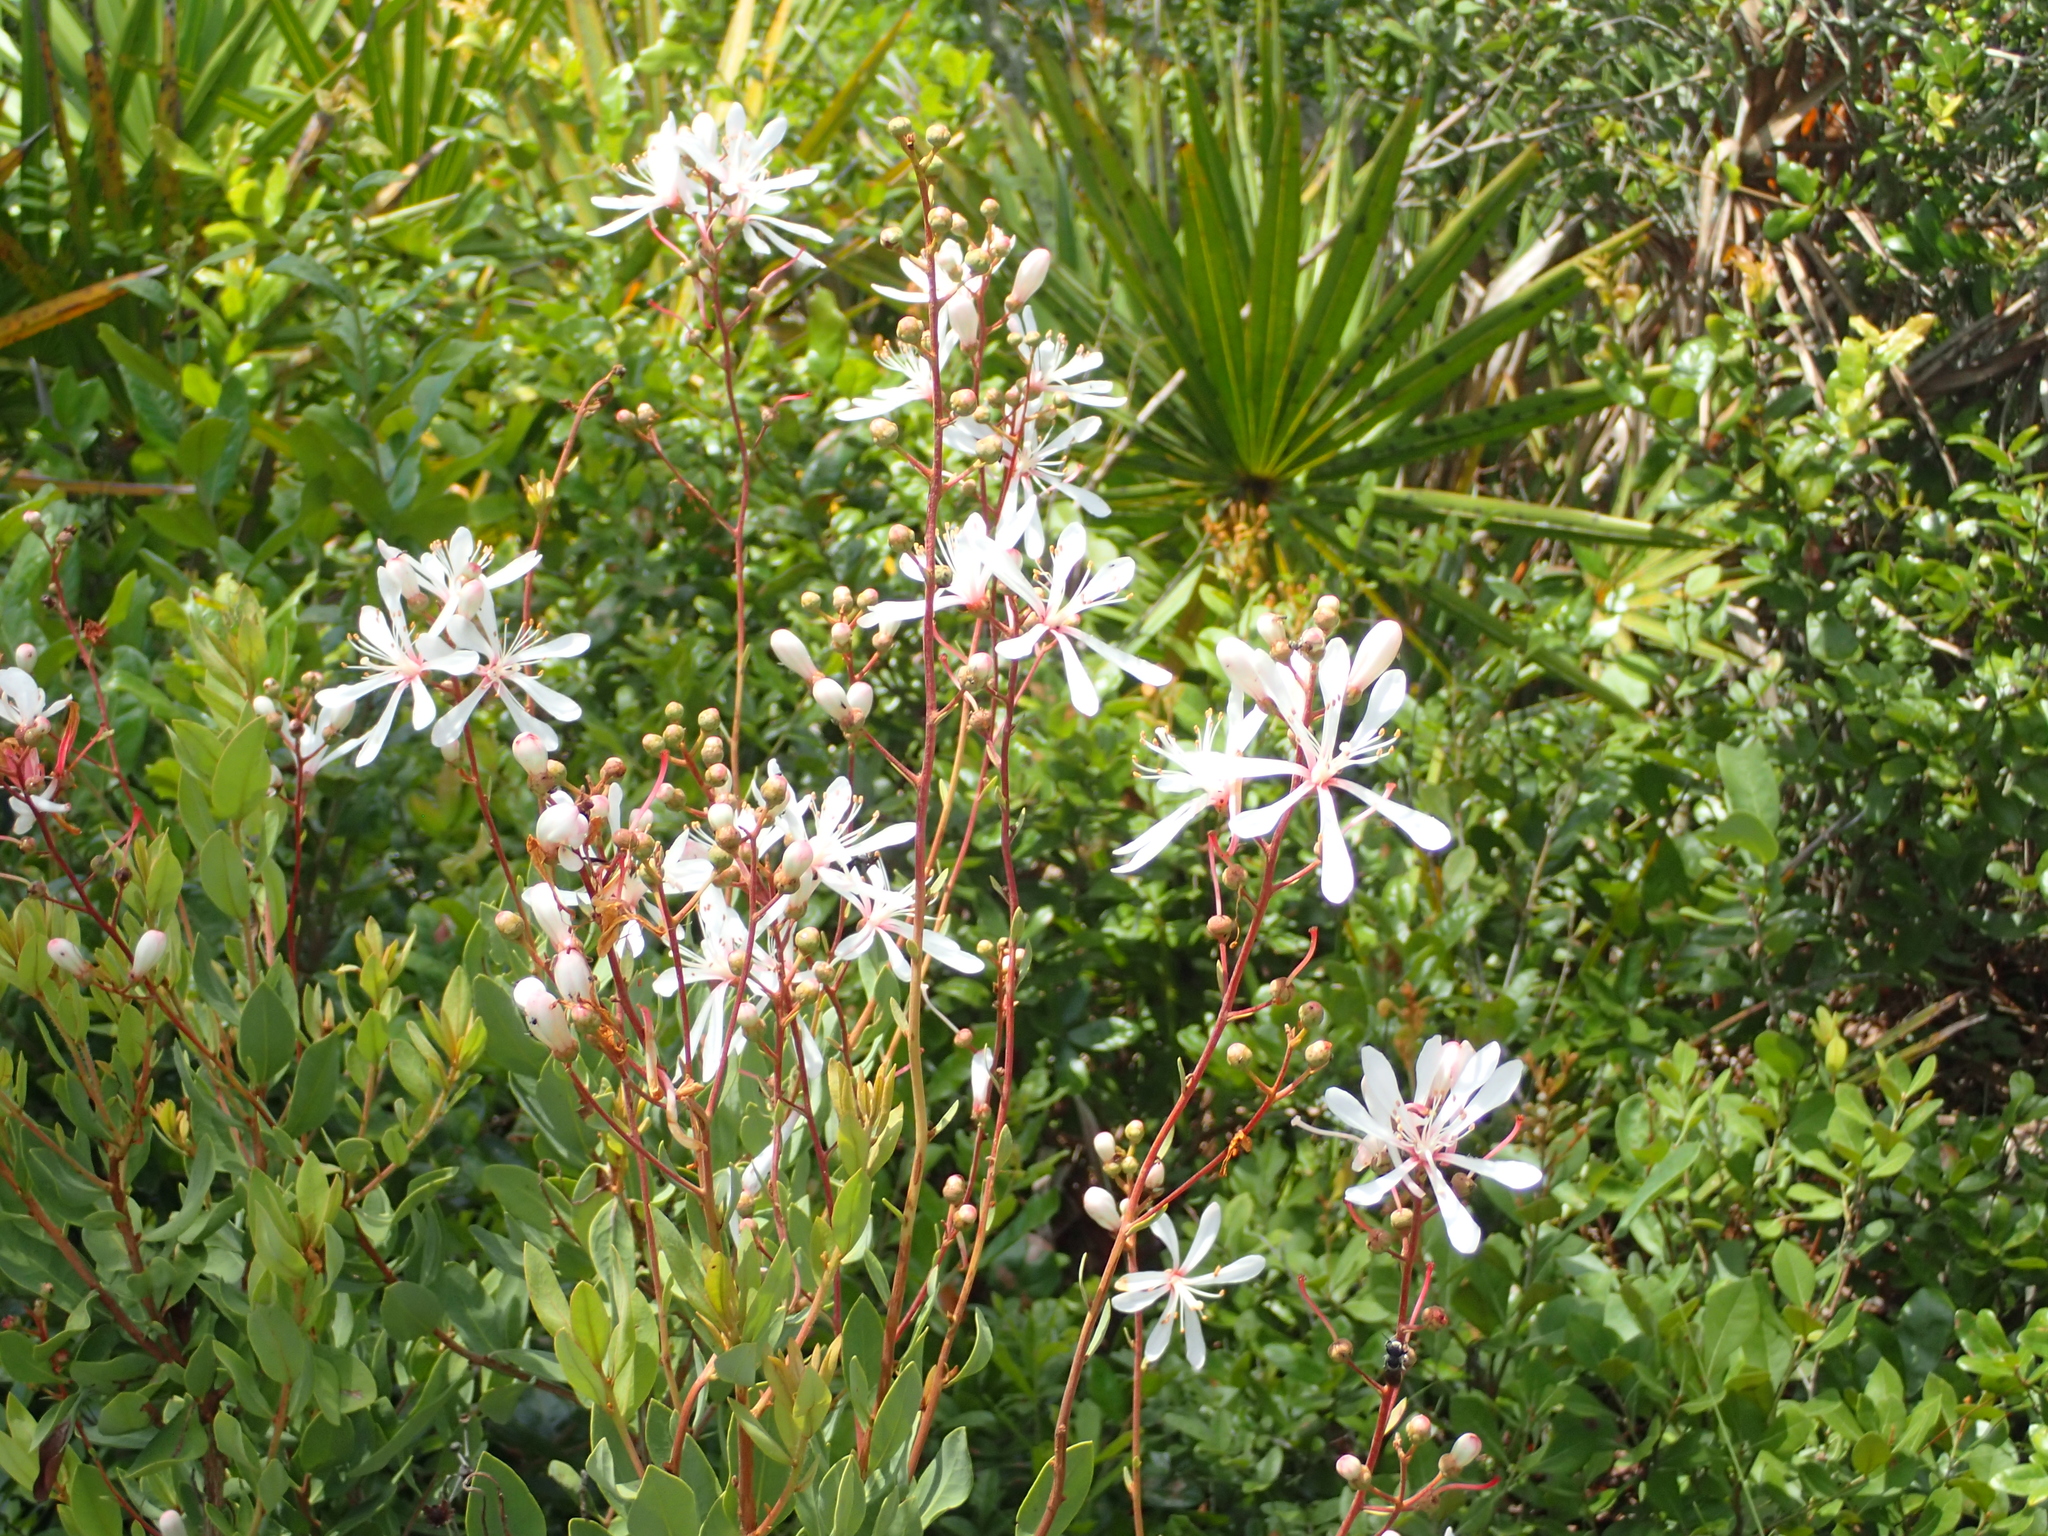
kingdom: Plantae
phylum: Tracheophyta
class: Magnoliopsida
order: Ericales
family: Ericaceae
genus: Bejaria
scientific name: Bejaria racemosa
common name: Tarflower
